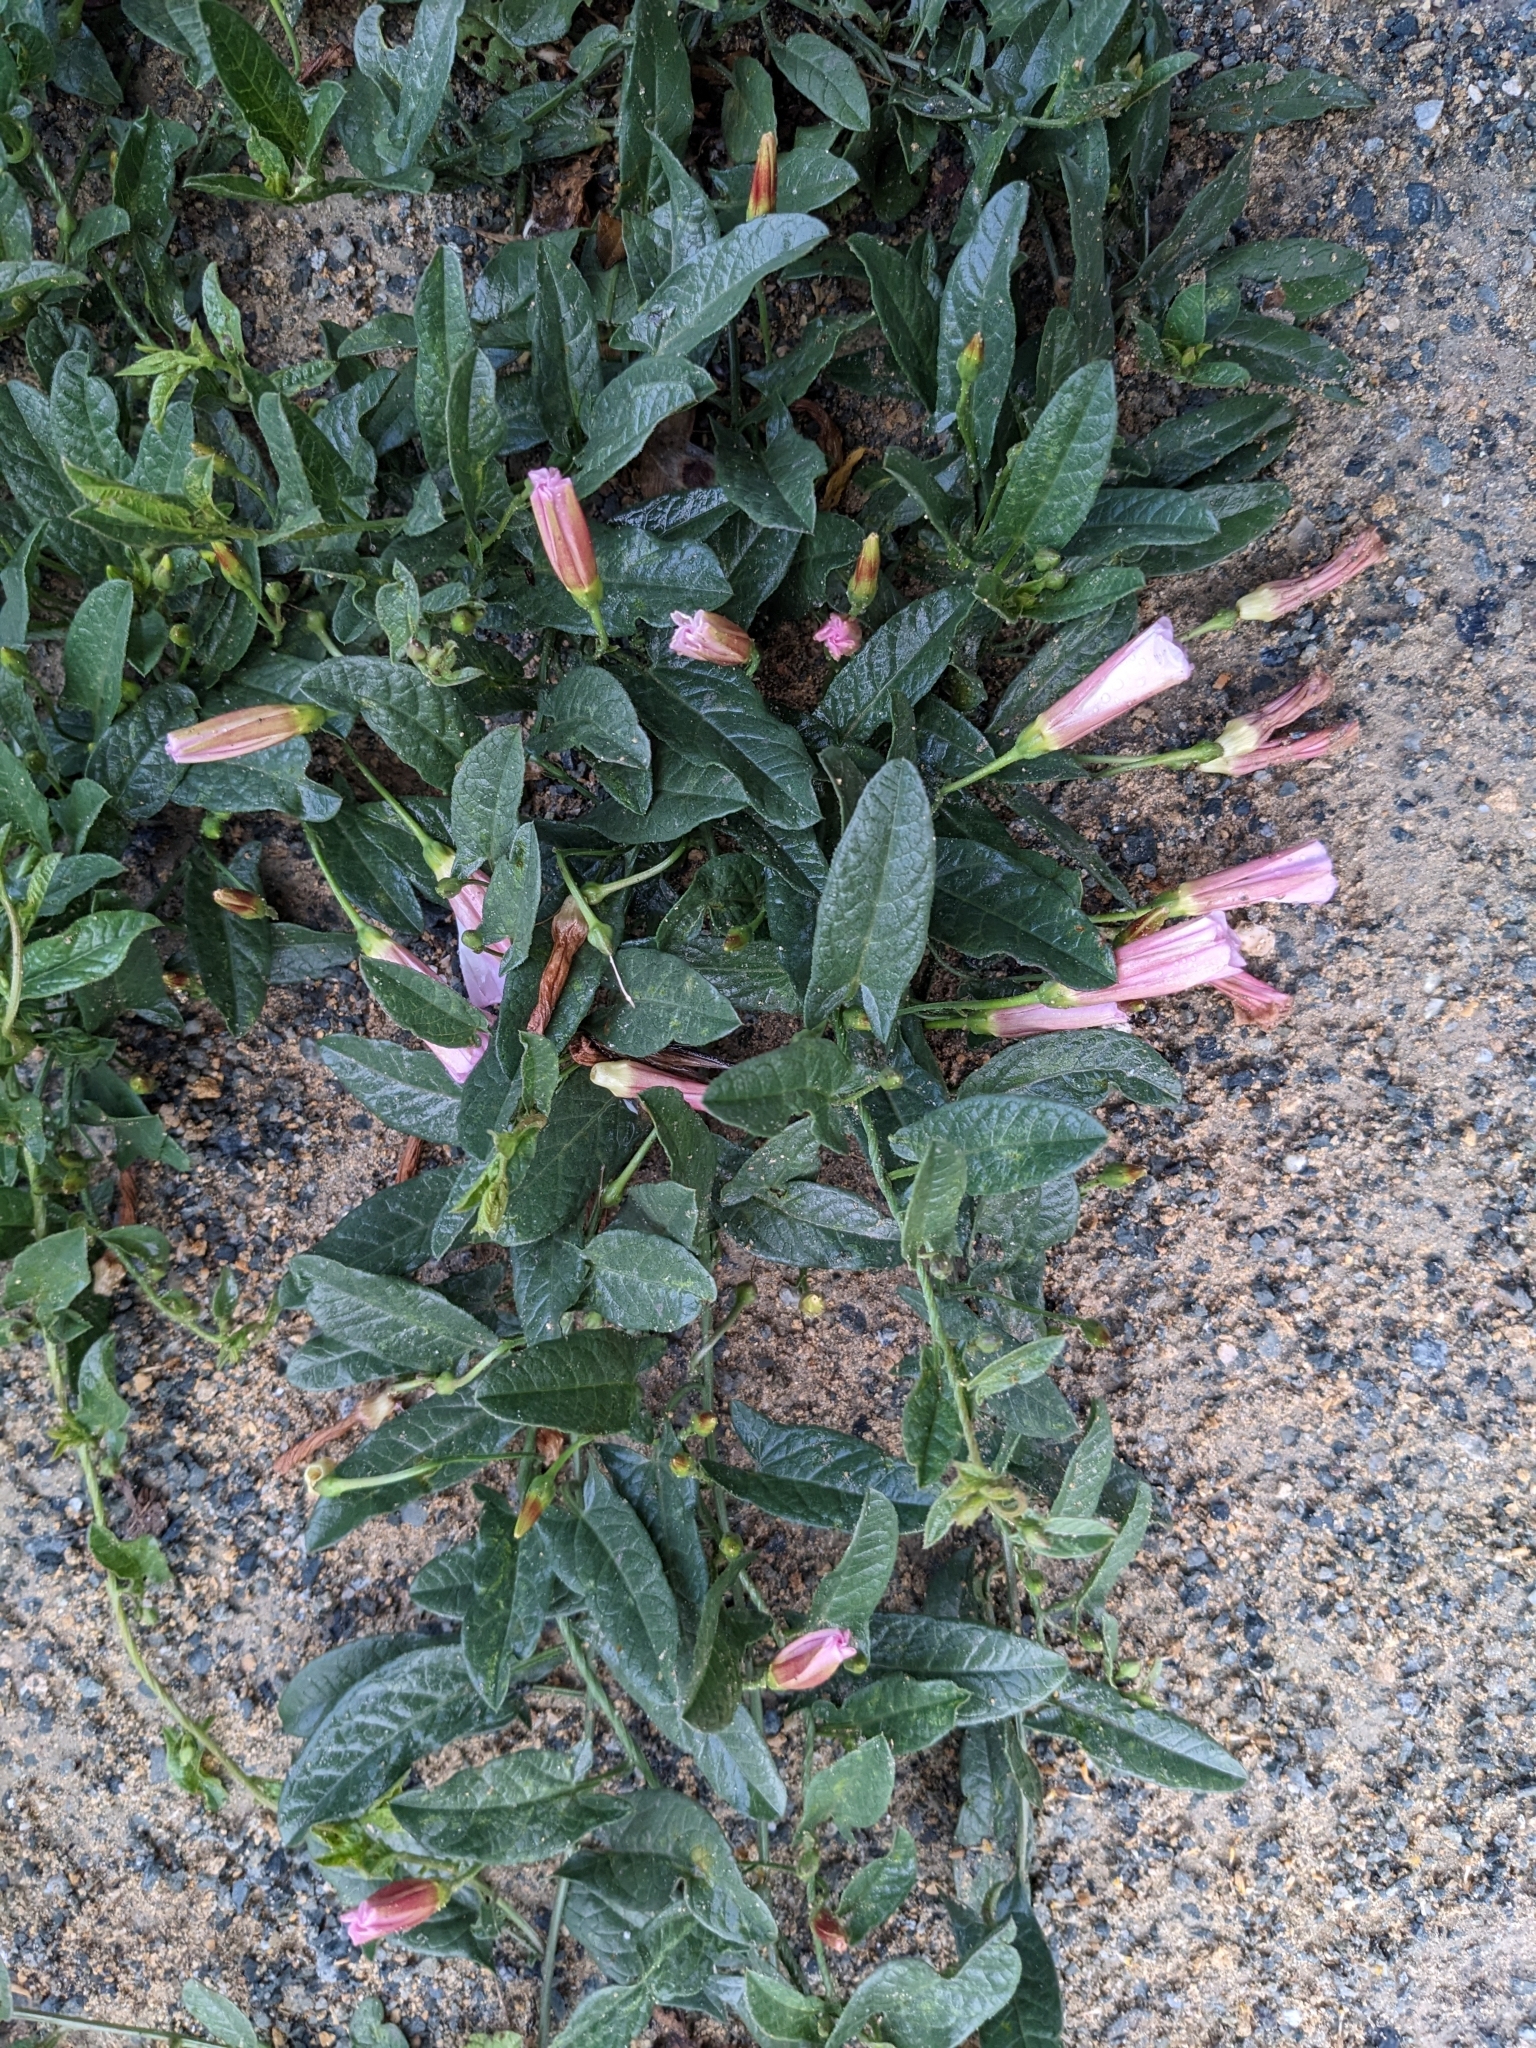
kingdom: Plantae
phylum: Tracheophyta
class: Magnoliopsida
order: Solanales
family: Convolvulaceae
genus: Convolvulus
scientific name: Convolvulus arvensis
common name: Field bindweed
